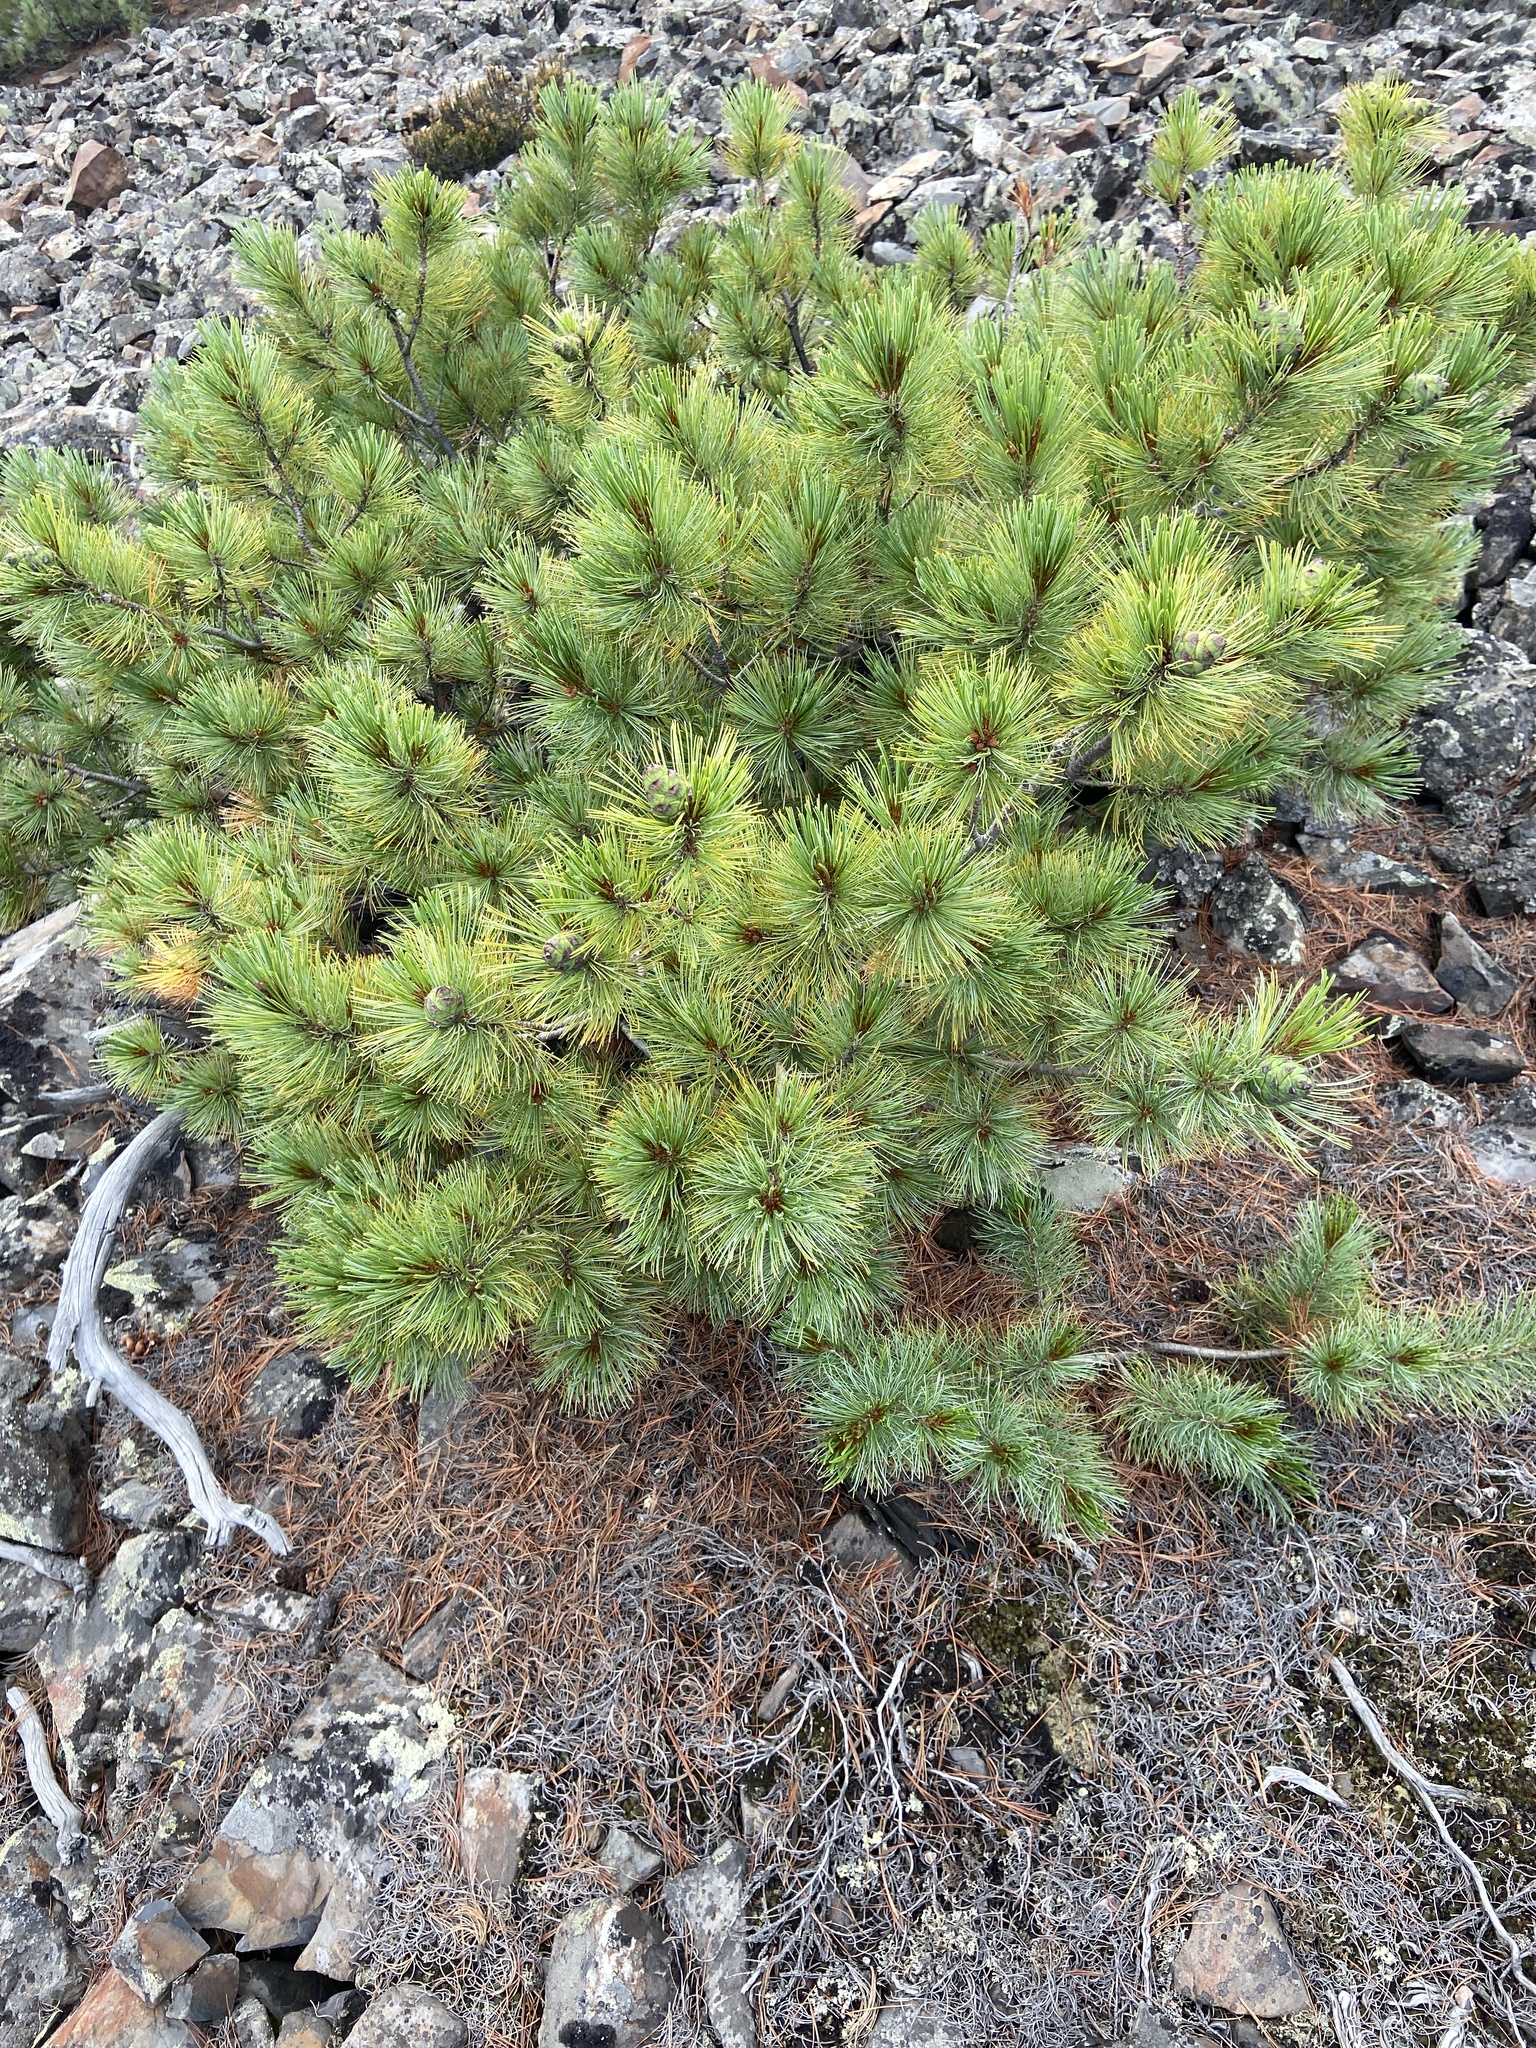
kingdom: Plantae
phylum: Tracheophyta
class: Pinopsida
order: Pinales
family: Pinaceae
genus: Pinus
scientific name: Pinus pumila
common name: Dwarf siberian pine
